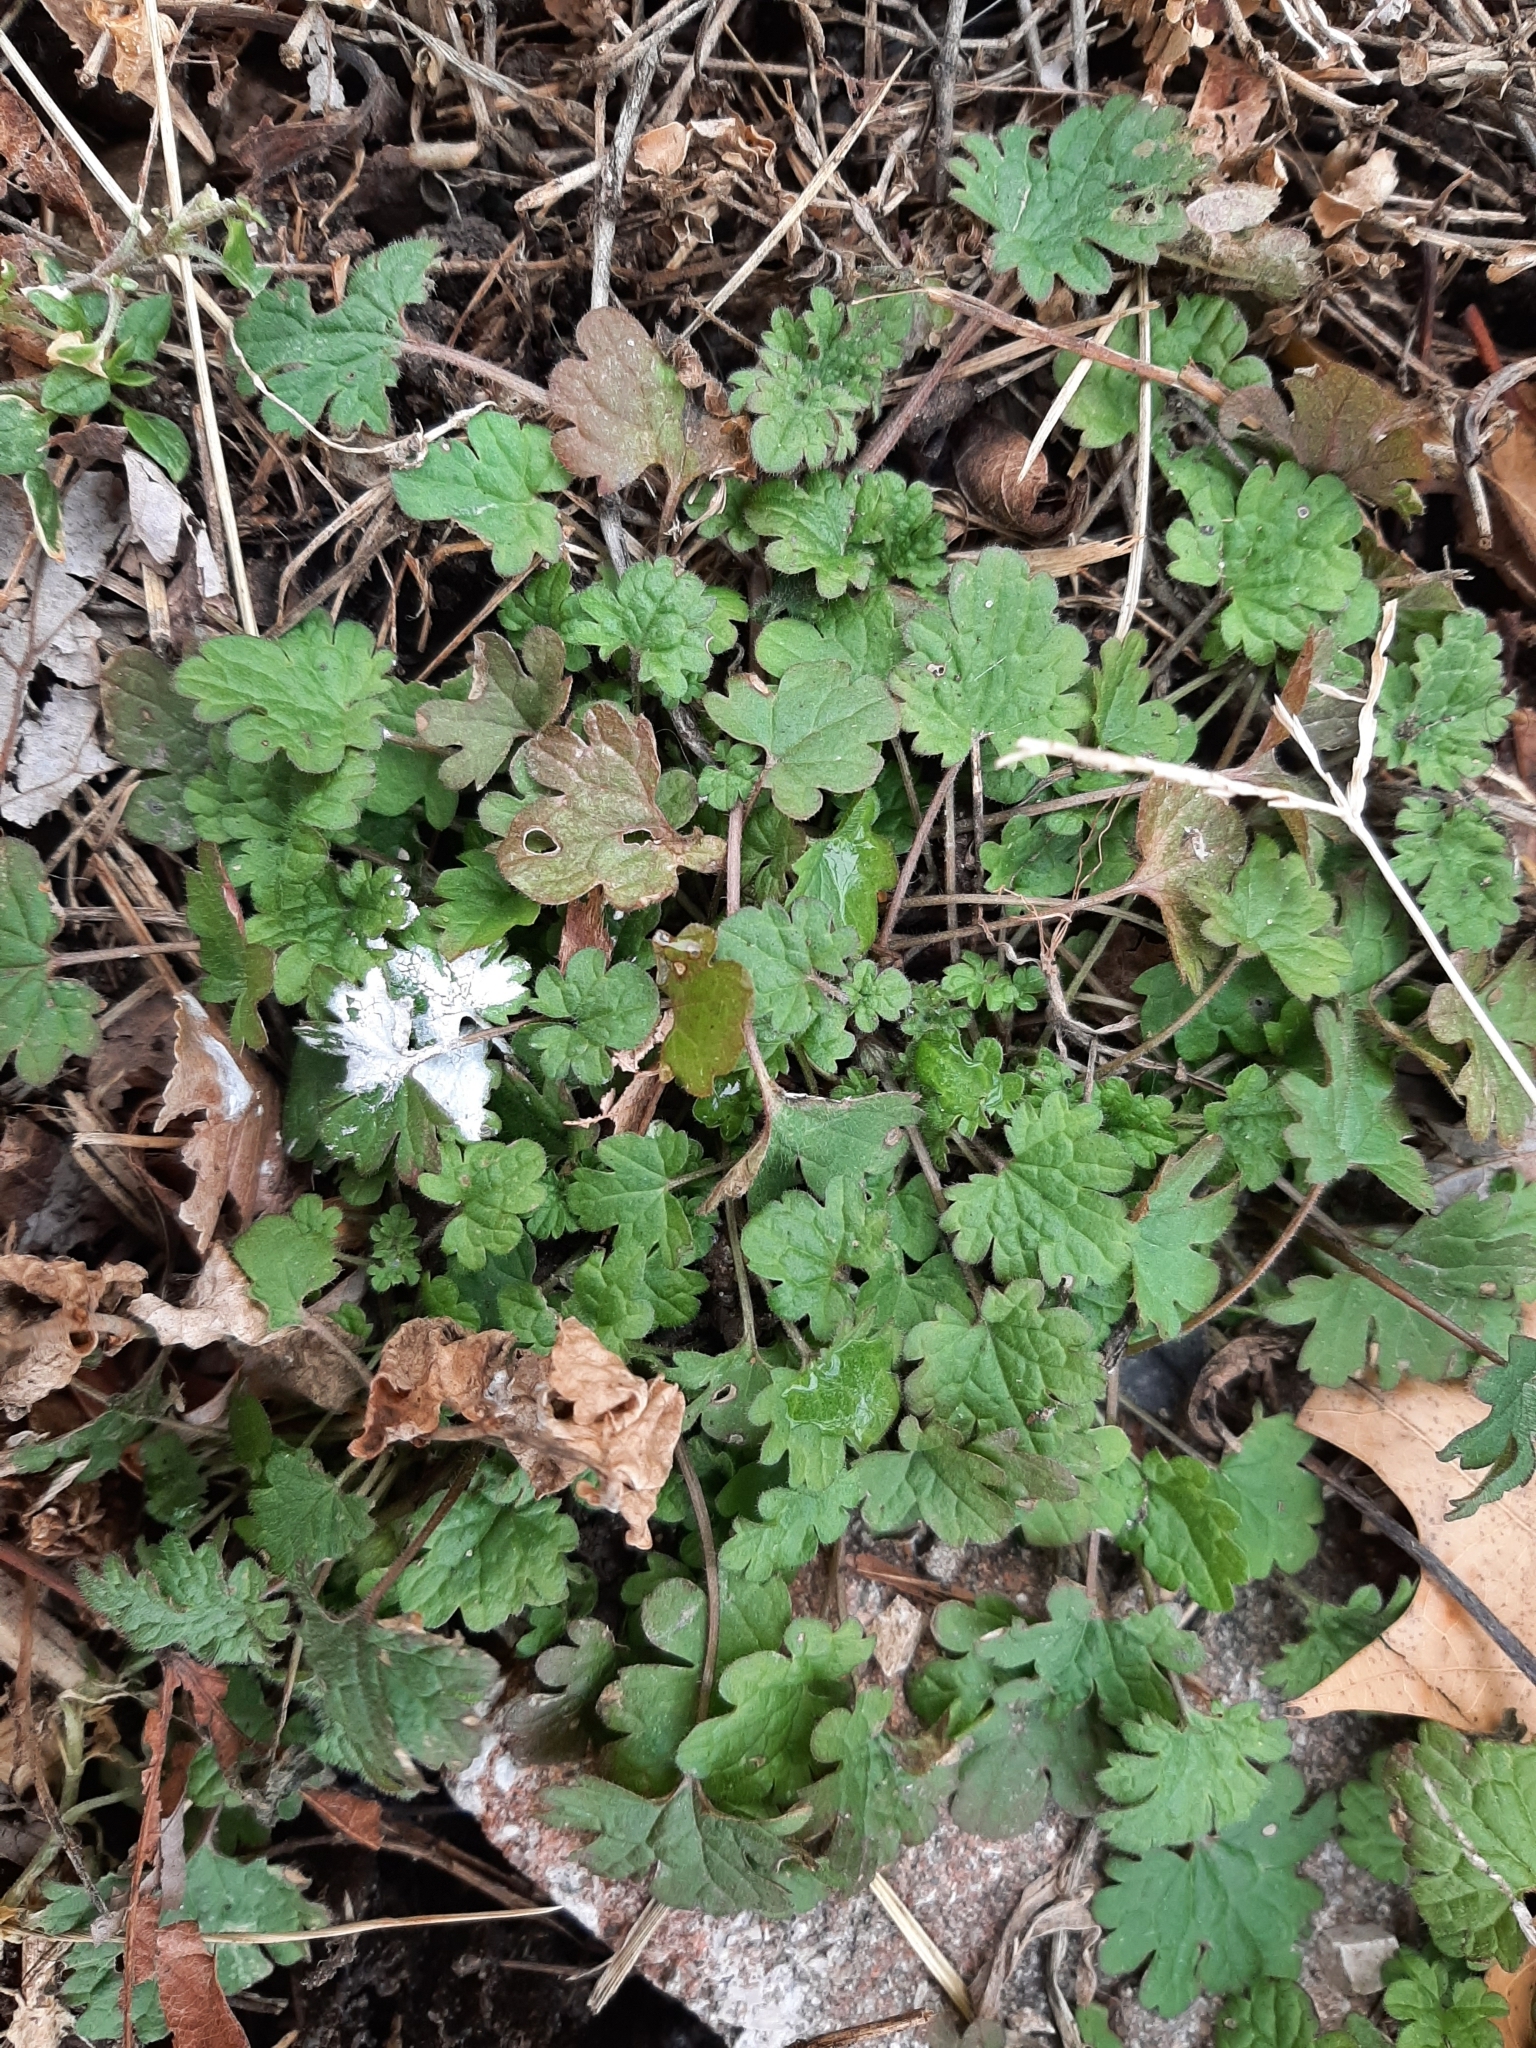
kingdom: Plantae
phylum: Tracheophyta
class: Magnoliopsida
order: Lamiales
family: Lamiaceae
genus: Lamium
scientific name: Lamium amplexicaule
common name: Henbit dead-nettle
